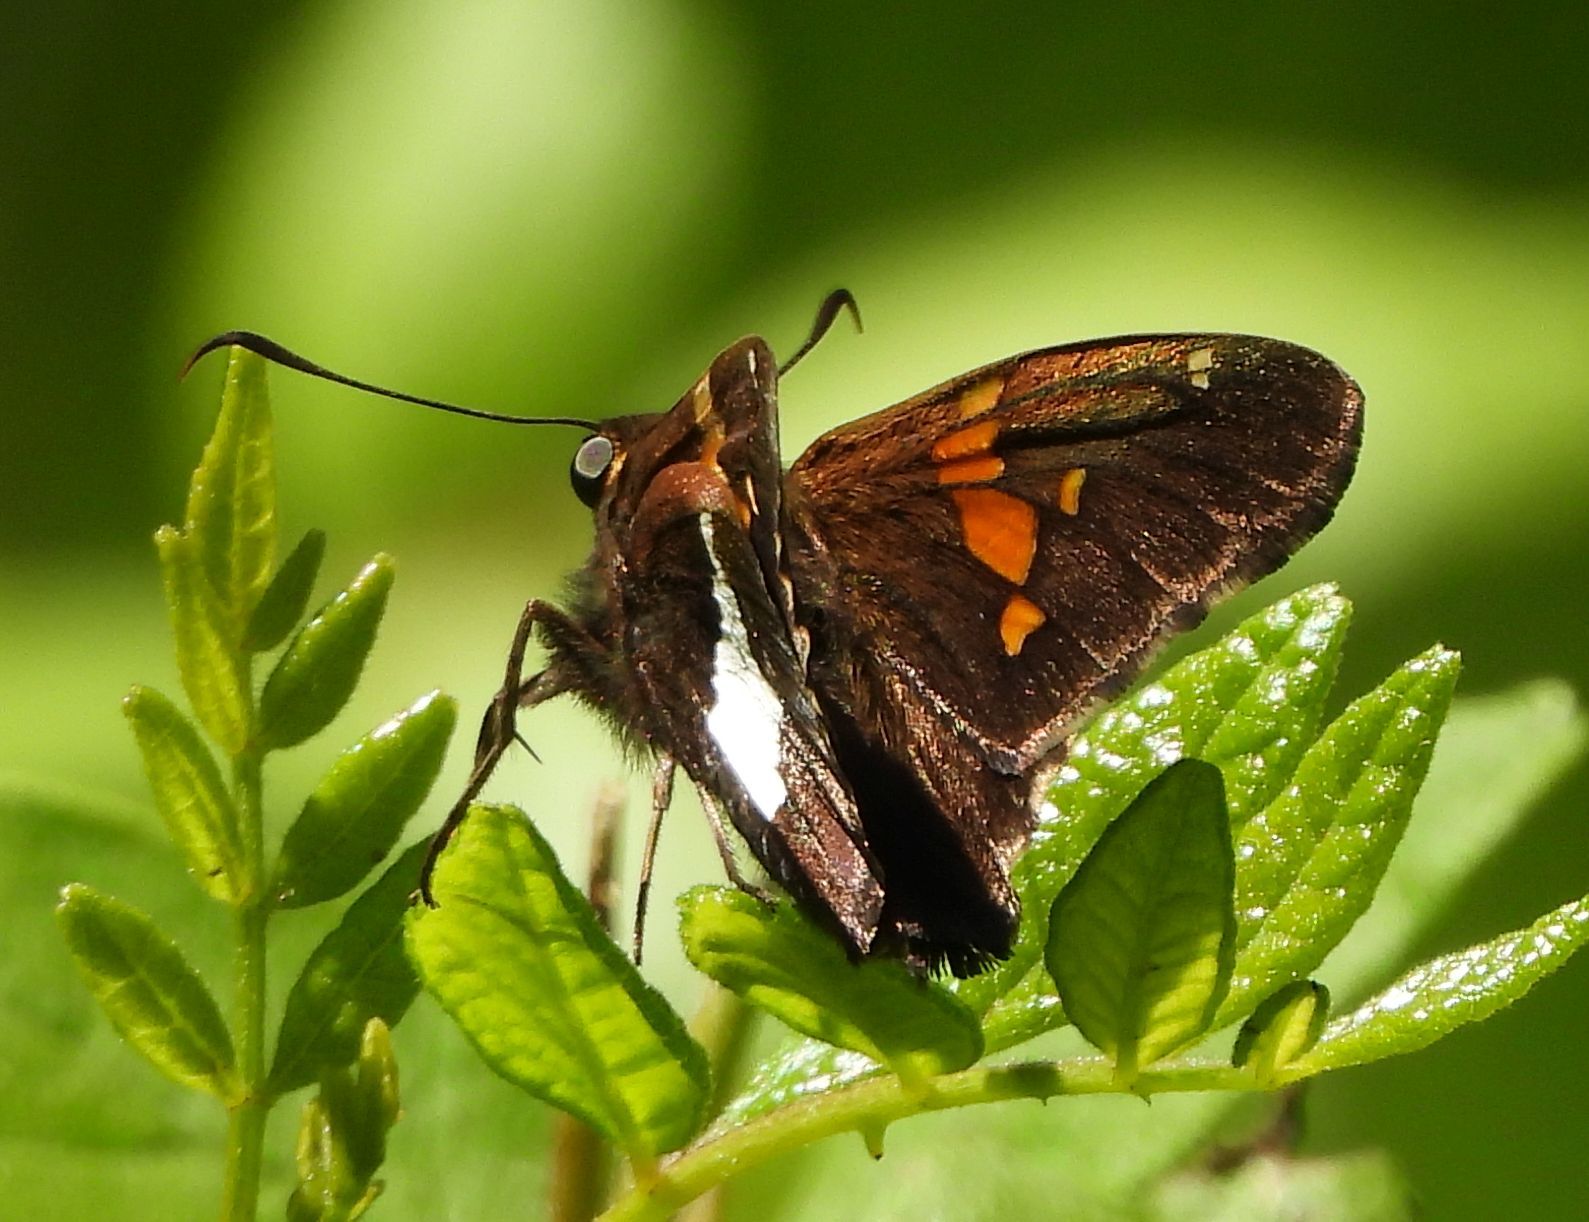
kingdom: Animalia
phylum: Arthropoda
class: Insecta
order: Lepidoptera
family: Hesperiidae
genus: Epargyreus
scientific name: Epargyreus clarus
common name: Silver-spotted skipper
